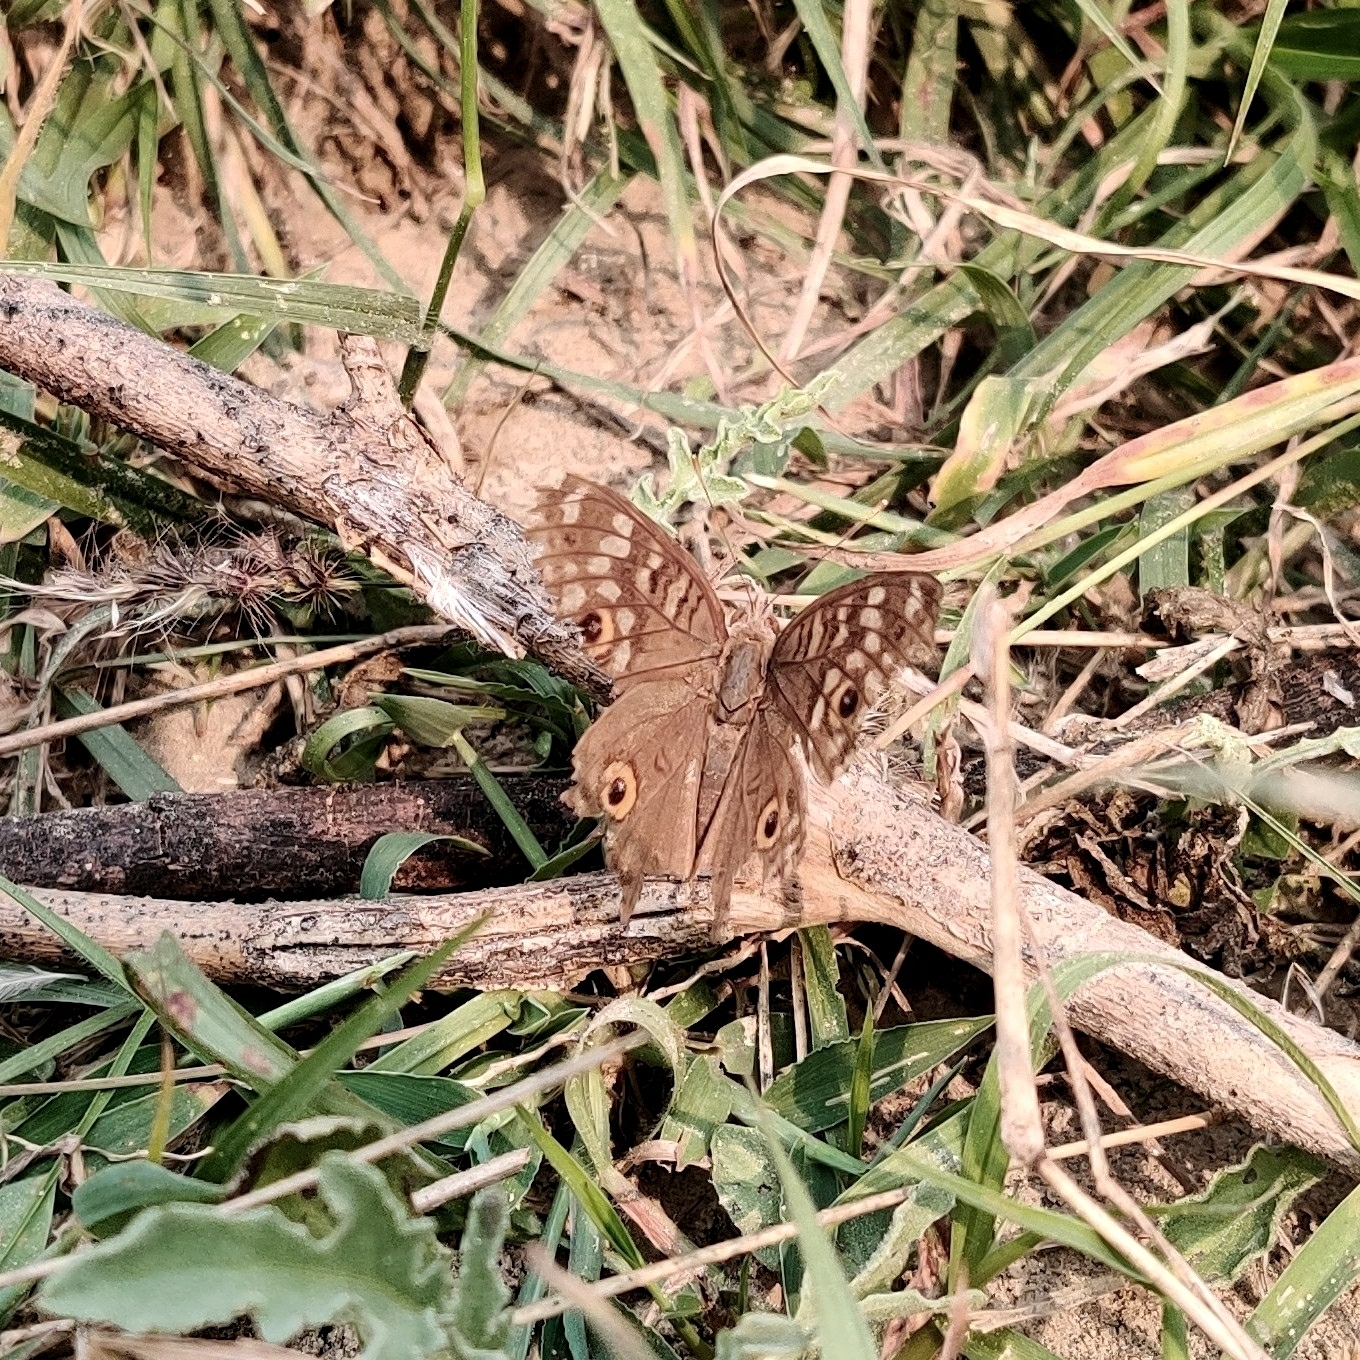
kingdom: Animalia
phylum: Arthropoda
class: Insecta
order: Lepidoptera
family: Nymphalidae
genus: Junonia
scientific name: Junonia lemonias
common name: Lemon pansy
